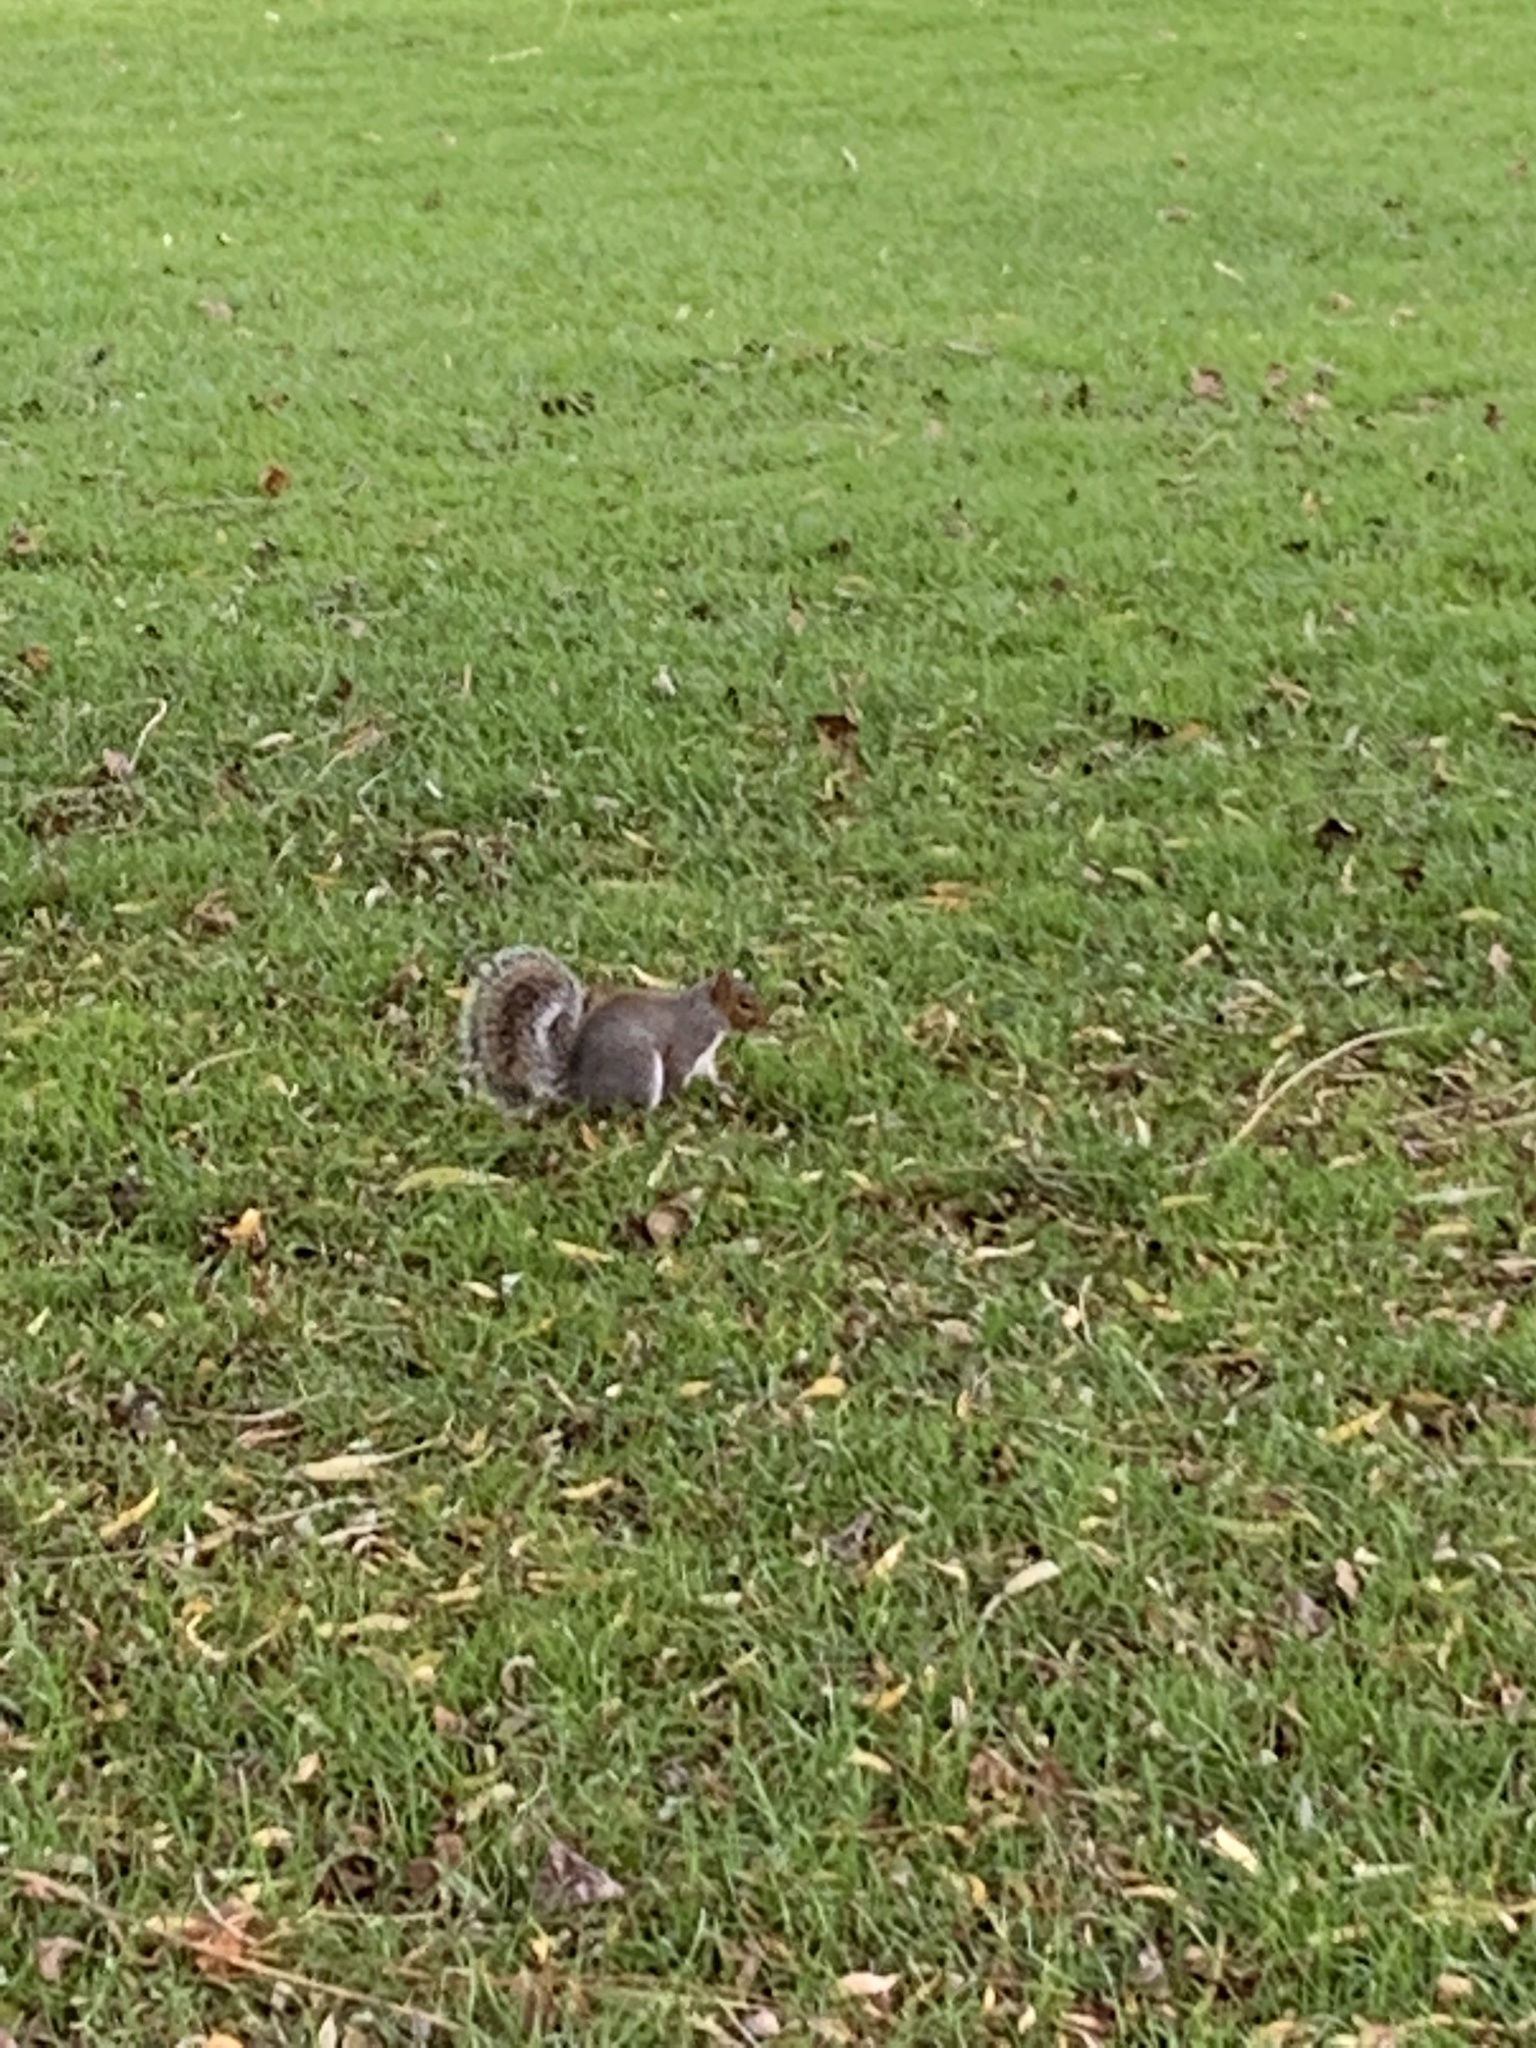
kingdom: Animalia
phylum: Chordata
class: Mammalia
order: Rodentia
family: Sciuridae
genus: Sciurus
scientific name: Sciurus carolinensis
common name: Eastern gray squirrel
